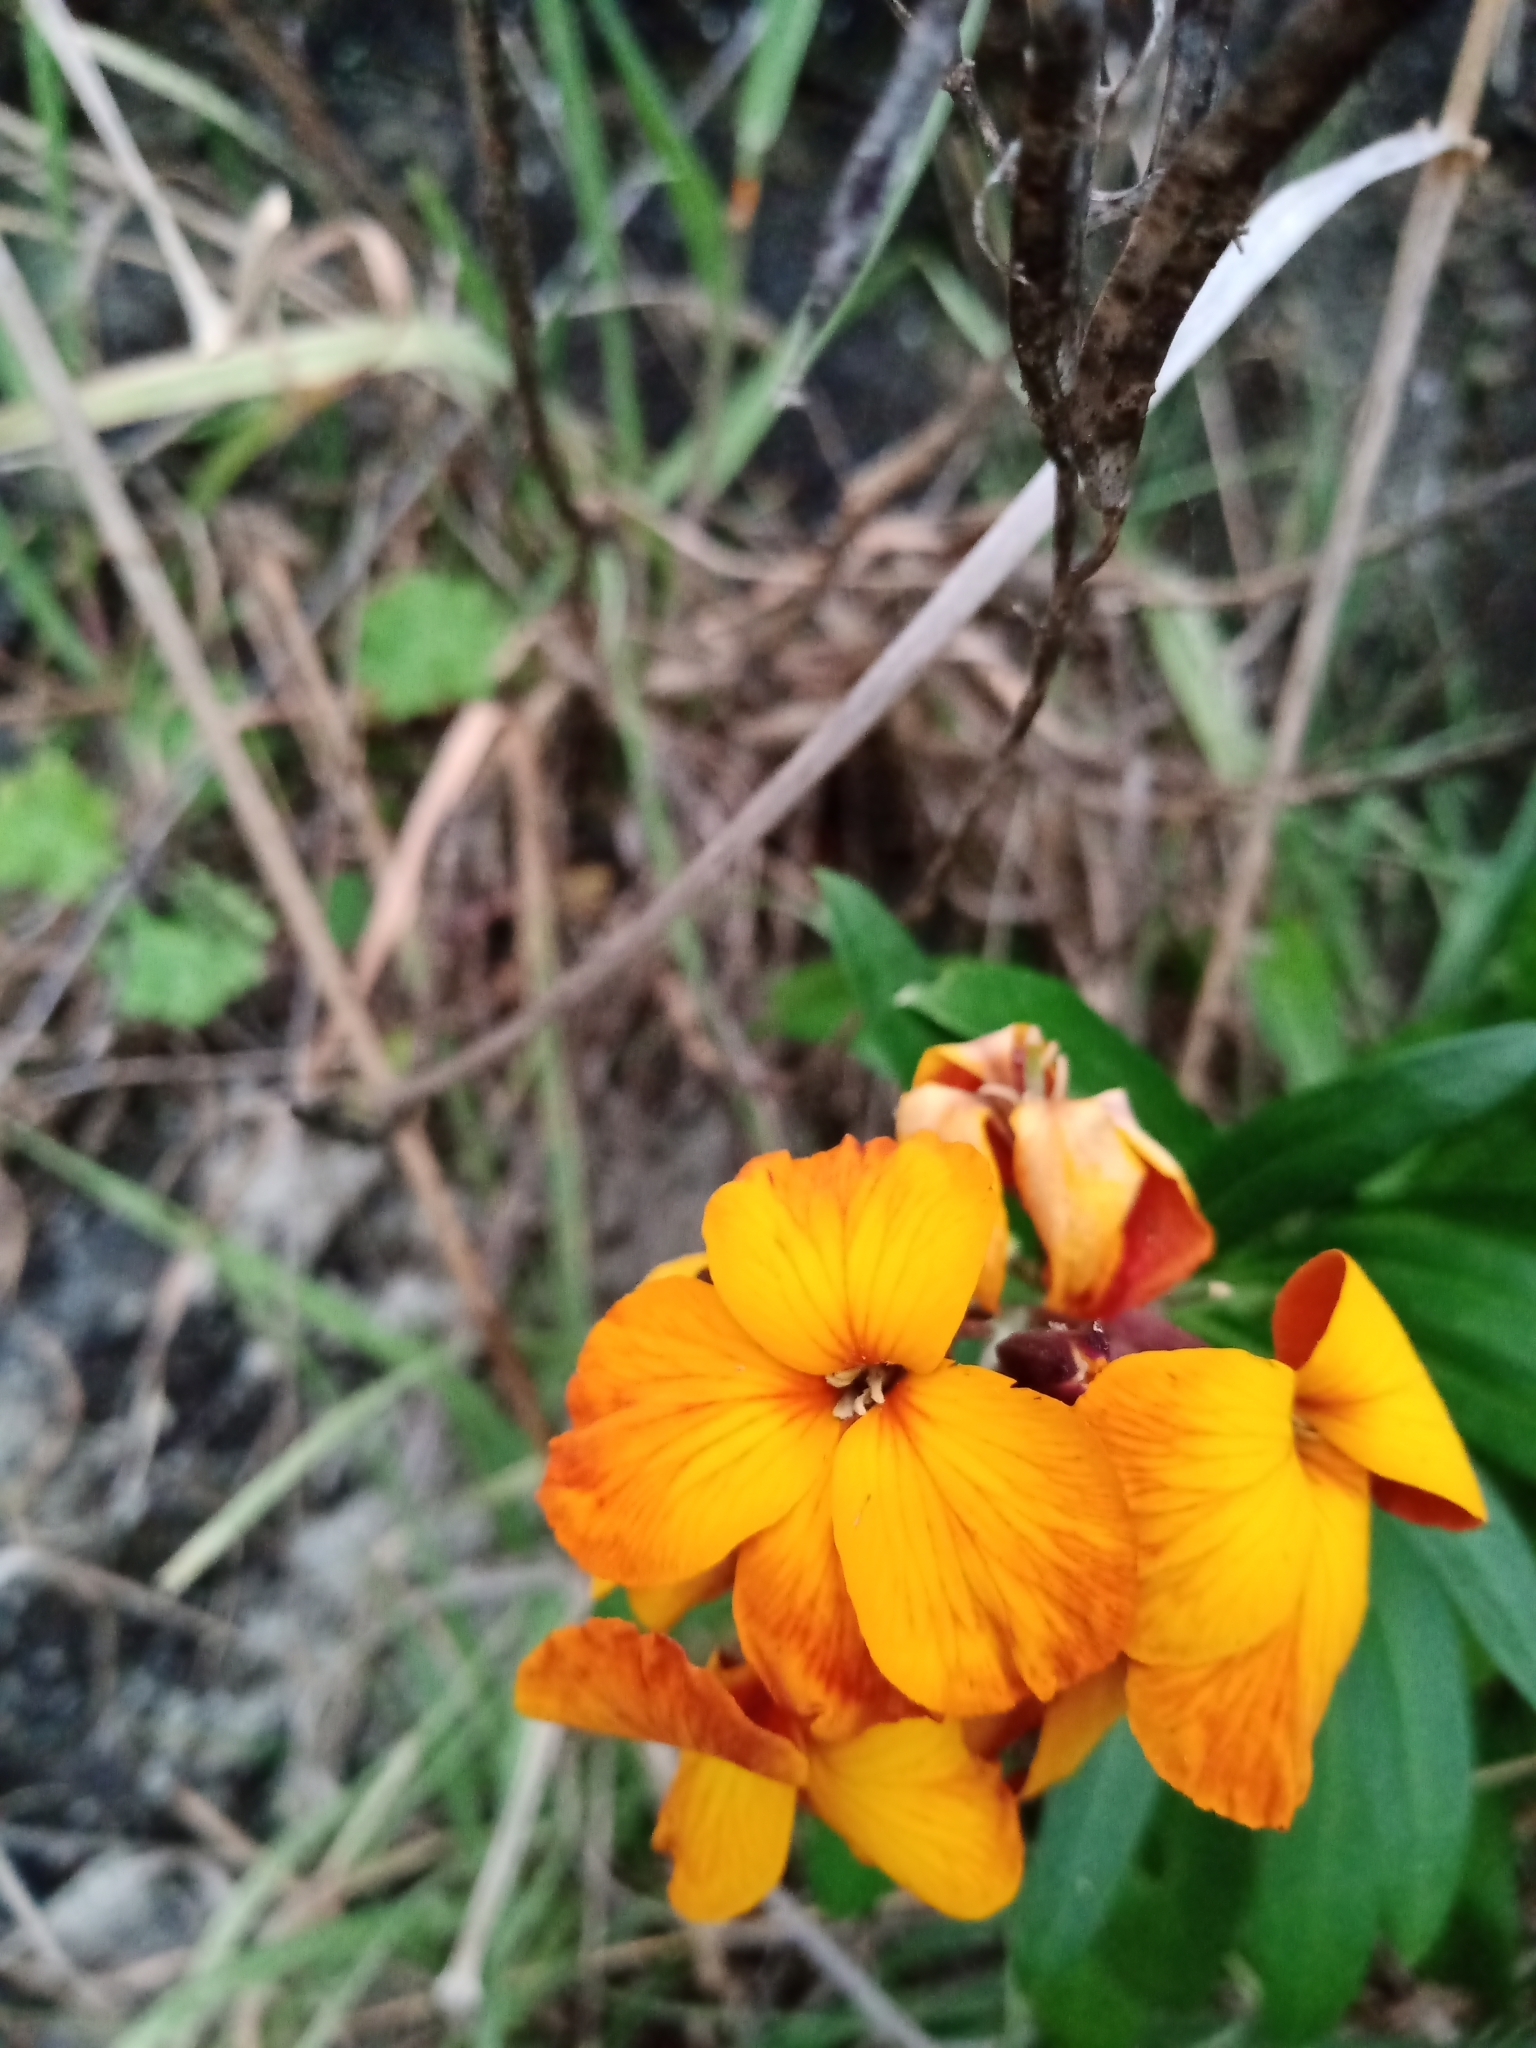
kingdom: Plantae
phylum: Tracheophyta
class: Magnoliopsida
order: Brassicales
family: Brassicaceae
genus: Erysimum
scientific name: Erysimum cheiri
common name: Wallflower
